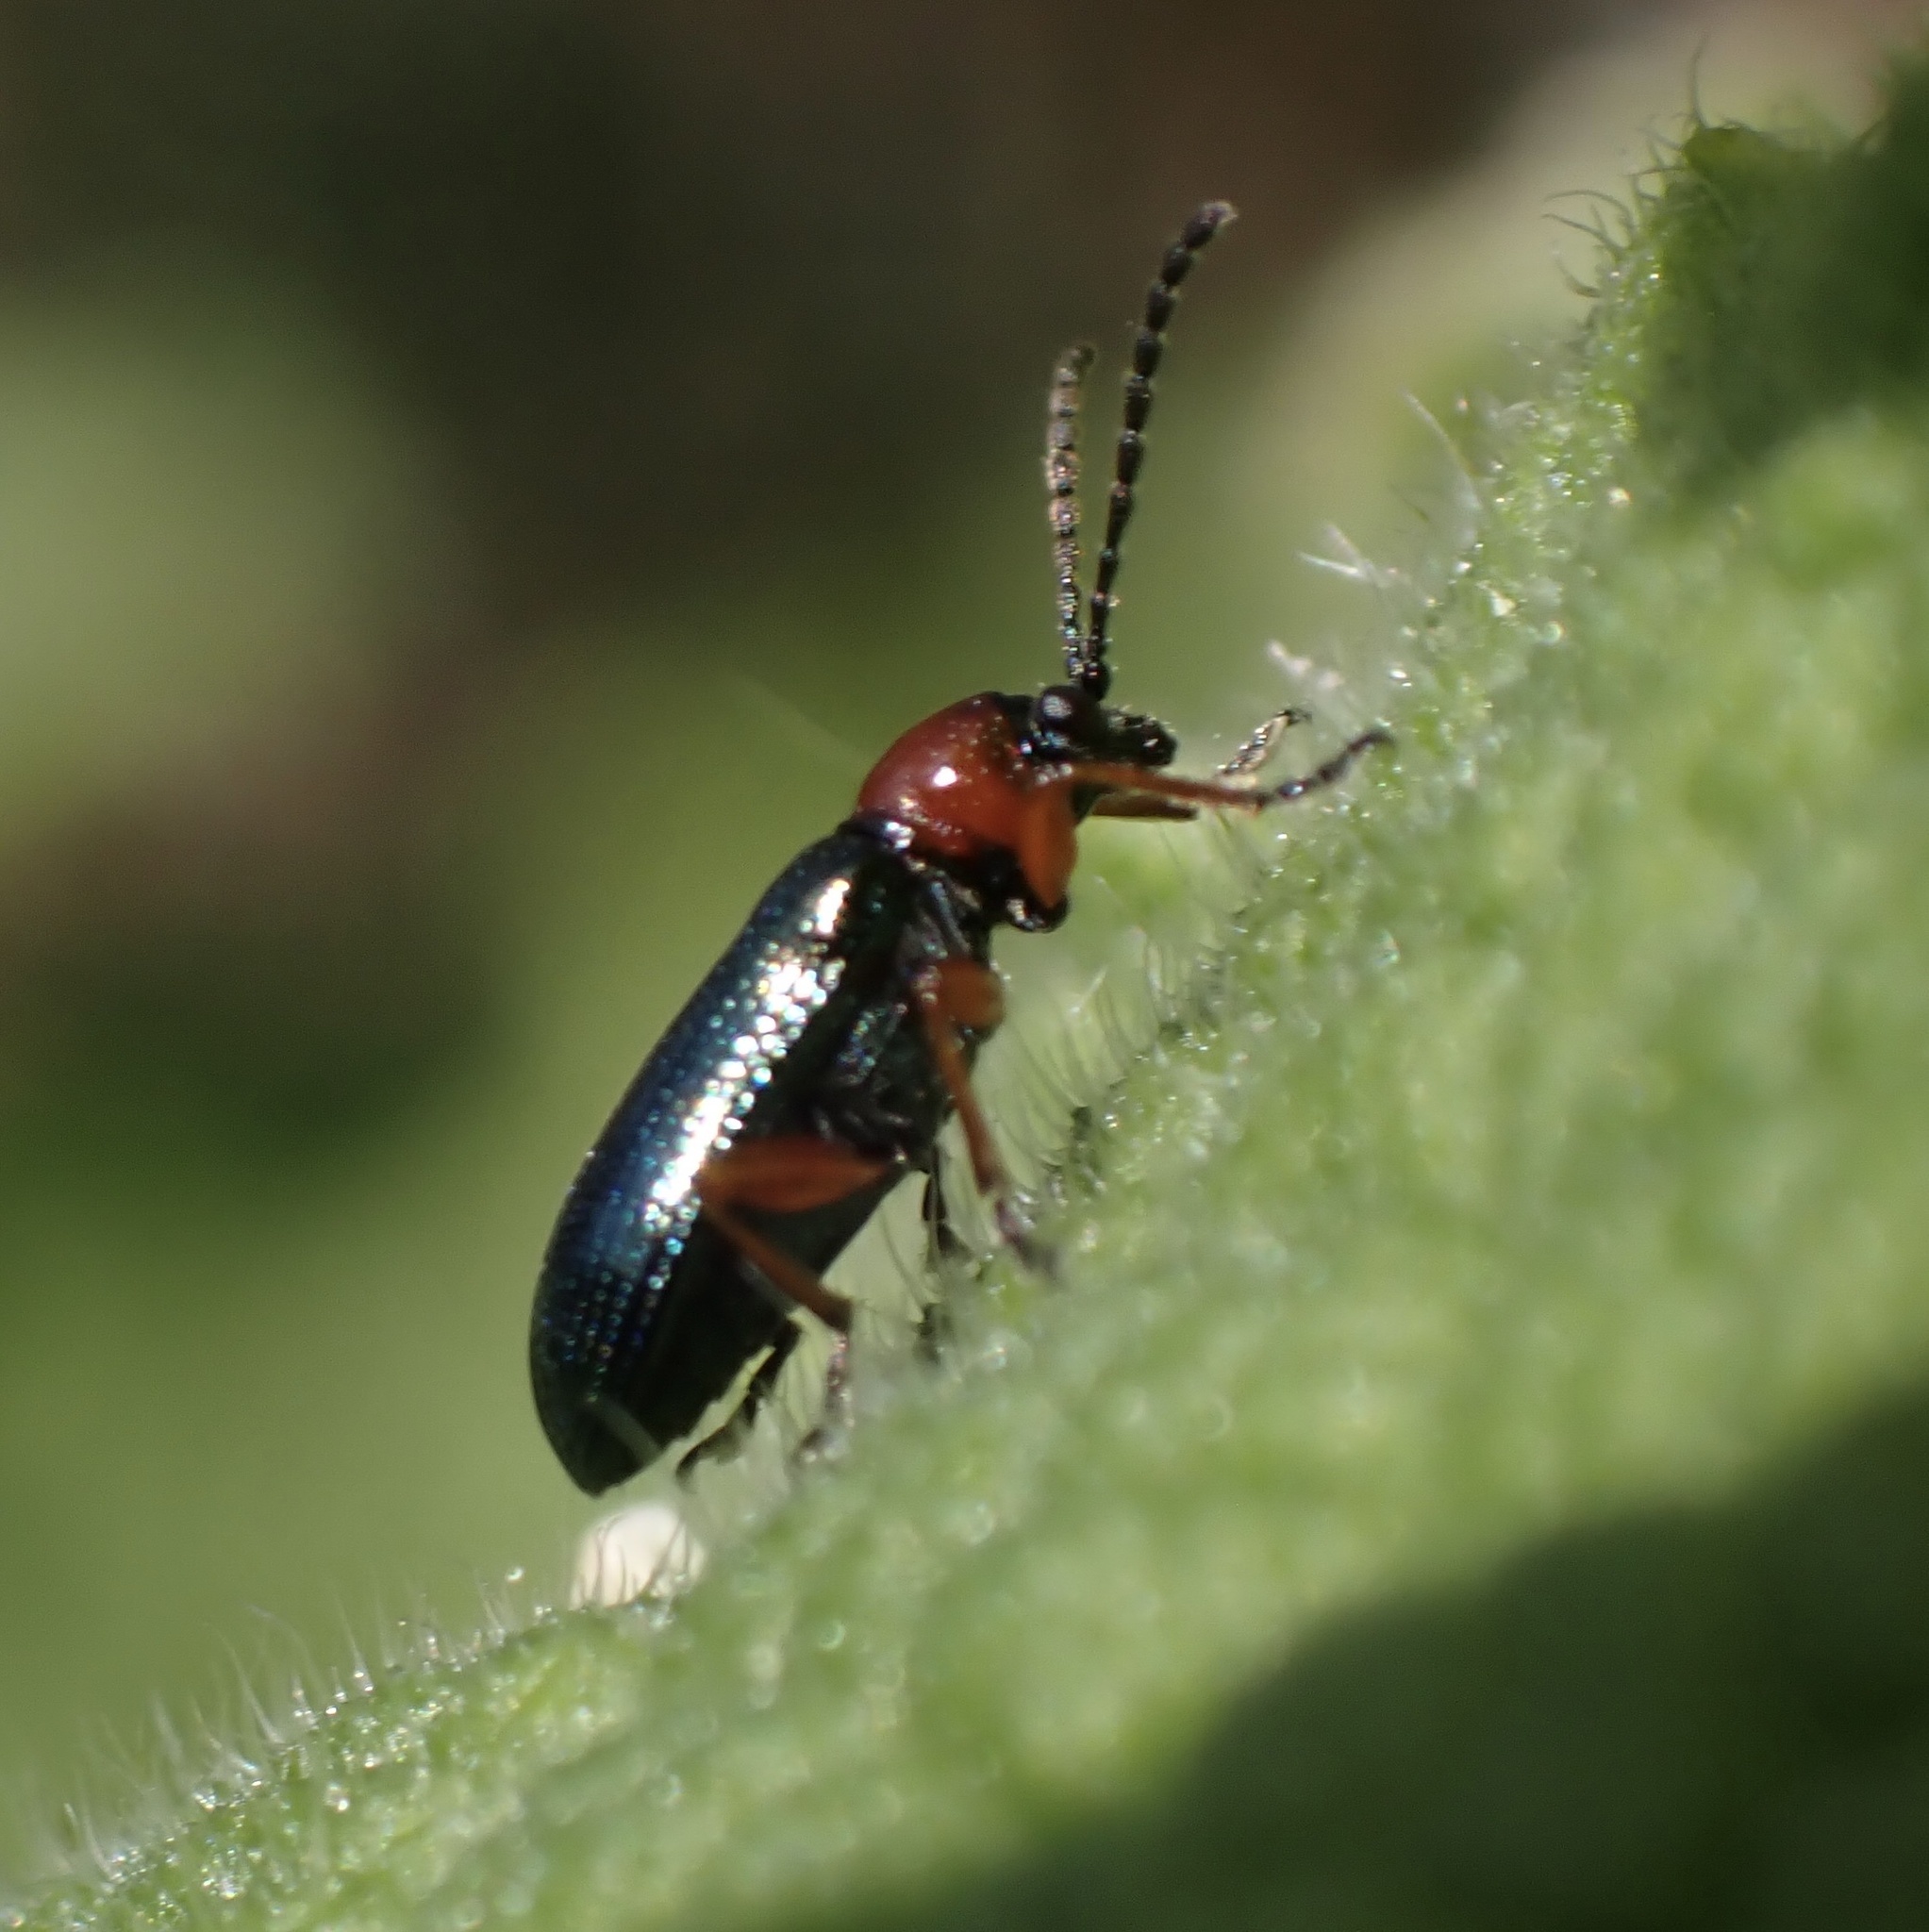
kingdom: Animalia
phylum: Arthropoda
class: Insecta
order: Coleoptera
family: Chrysomelidae
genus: Oulema
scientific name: Oulema
